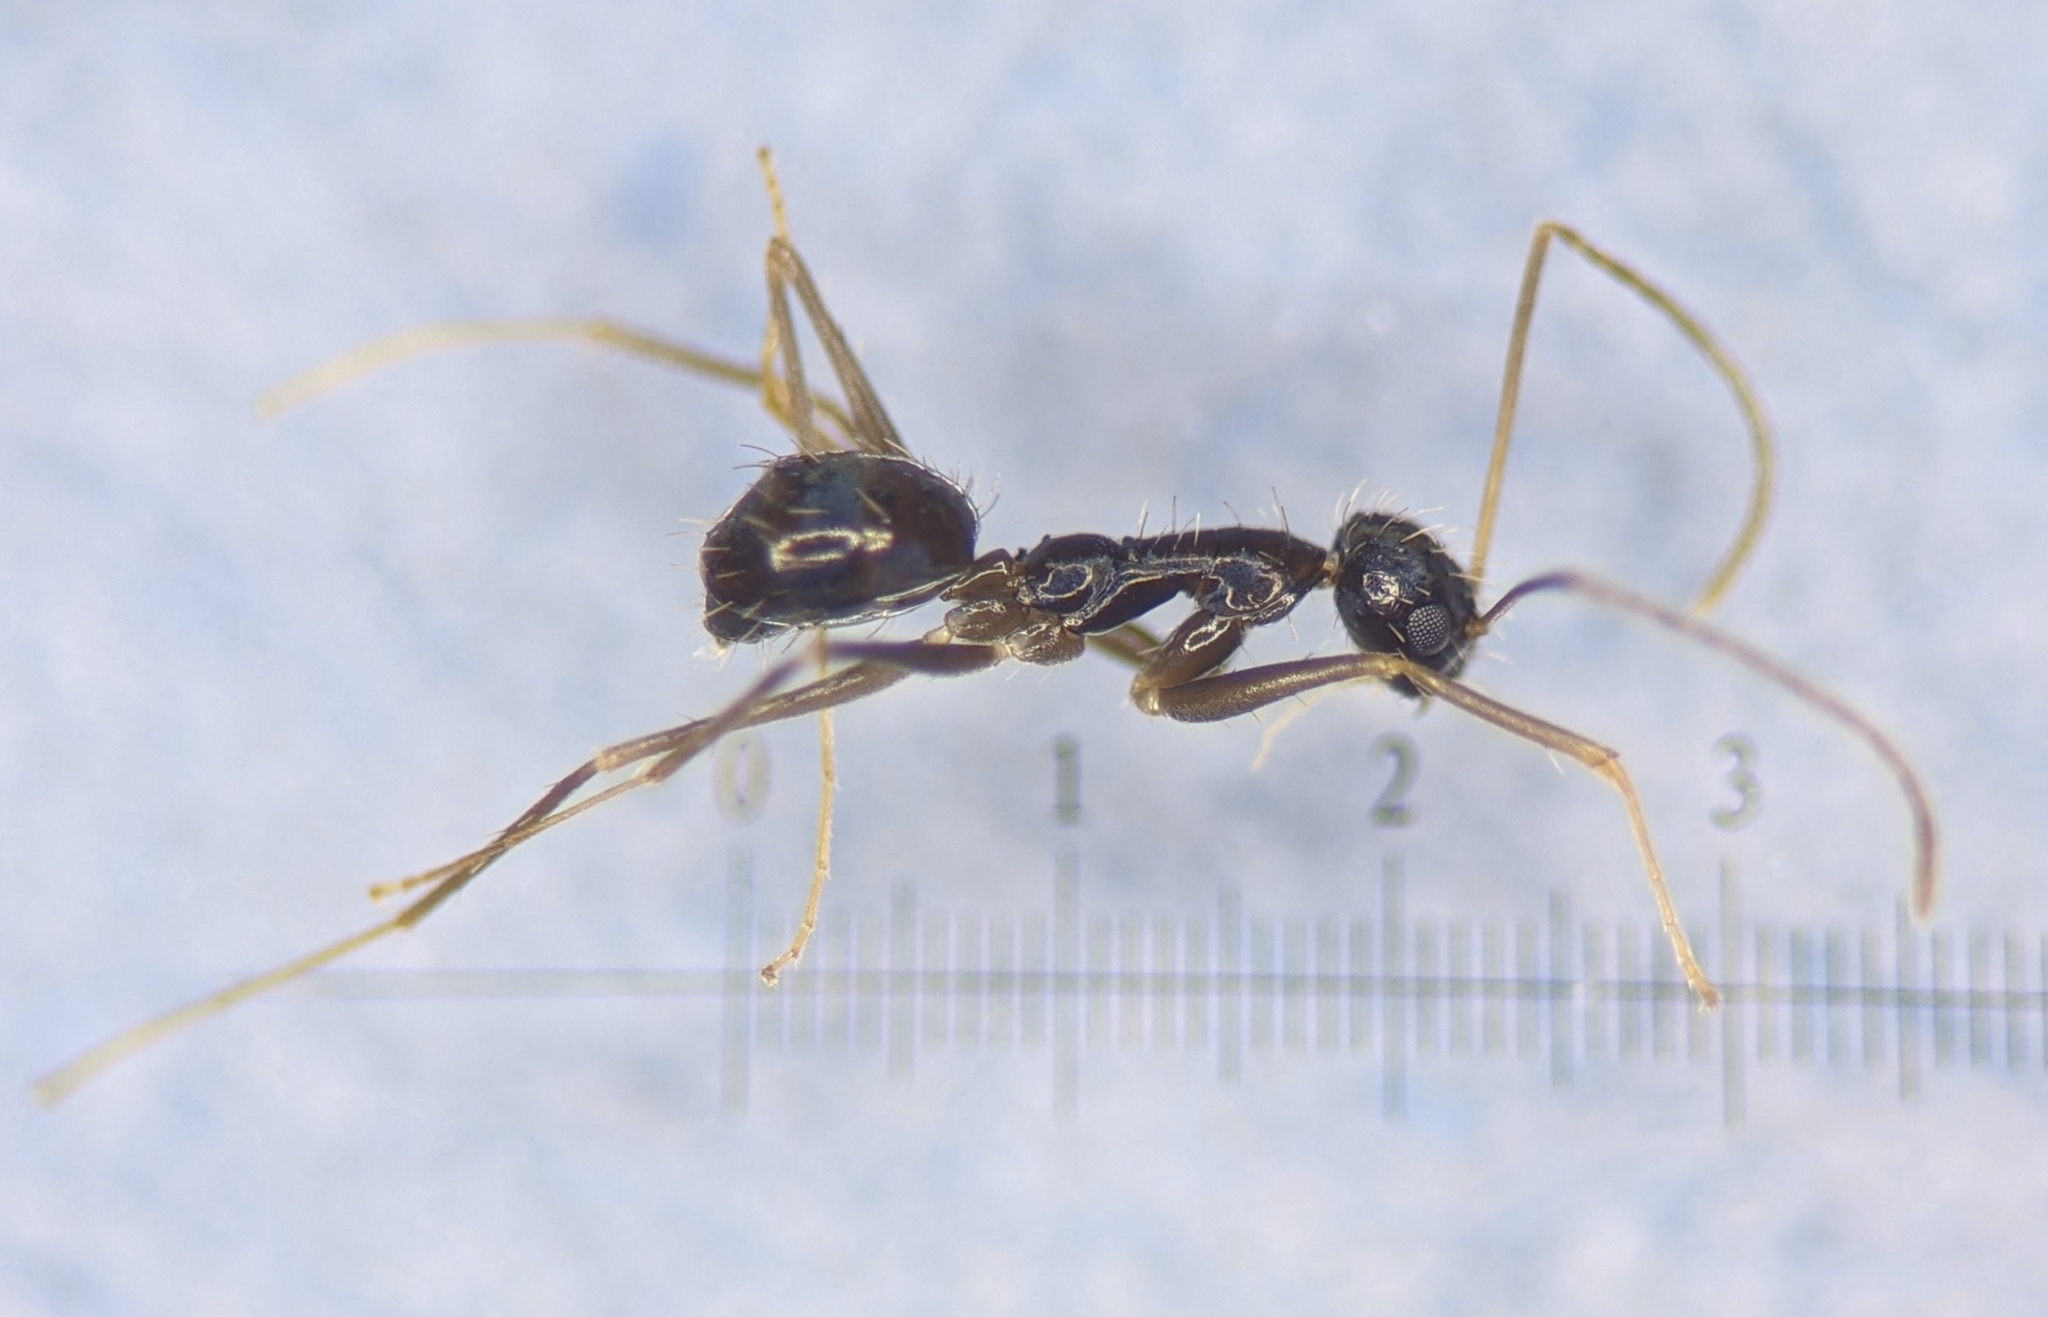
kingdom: Animalia
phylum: Arthropoda
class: Insecta
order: Hymenoptera
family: Formicidae
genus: Paratrechina
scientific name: Paratrechina longicornis
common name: Longhorned crazy ant
